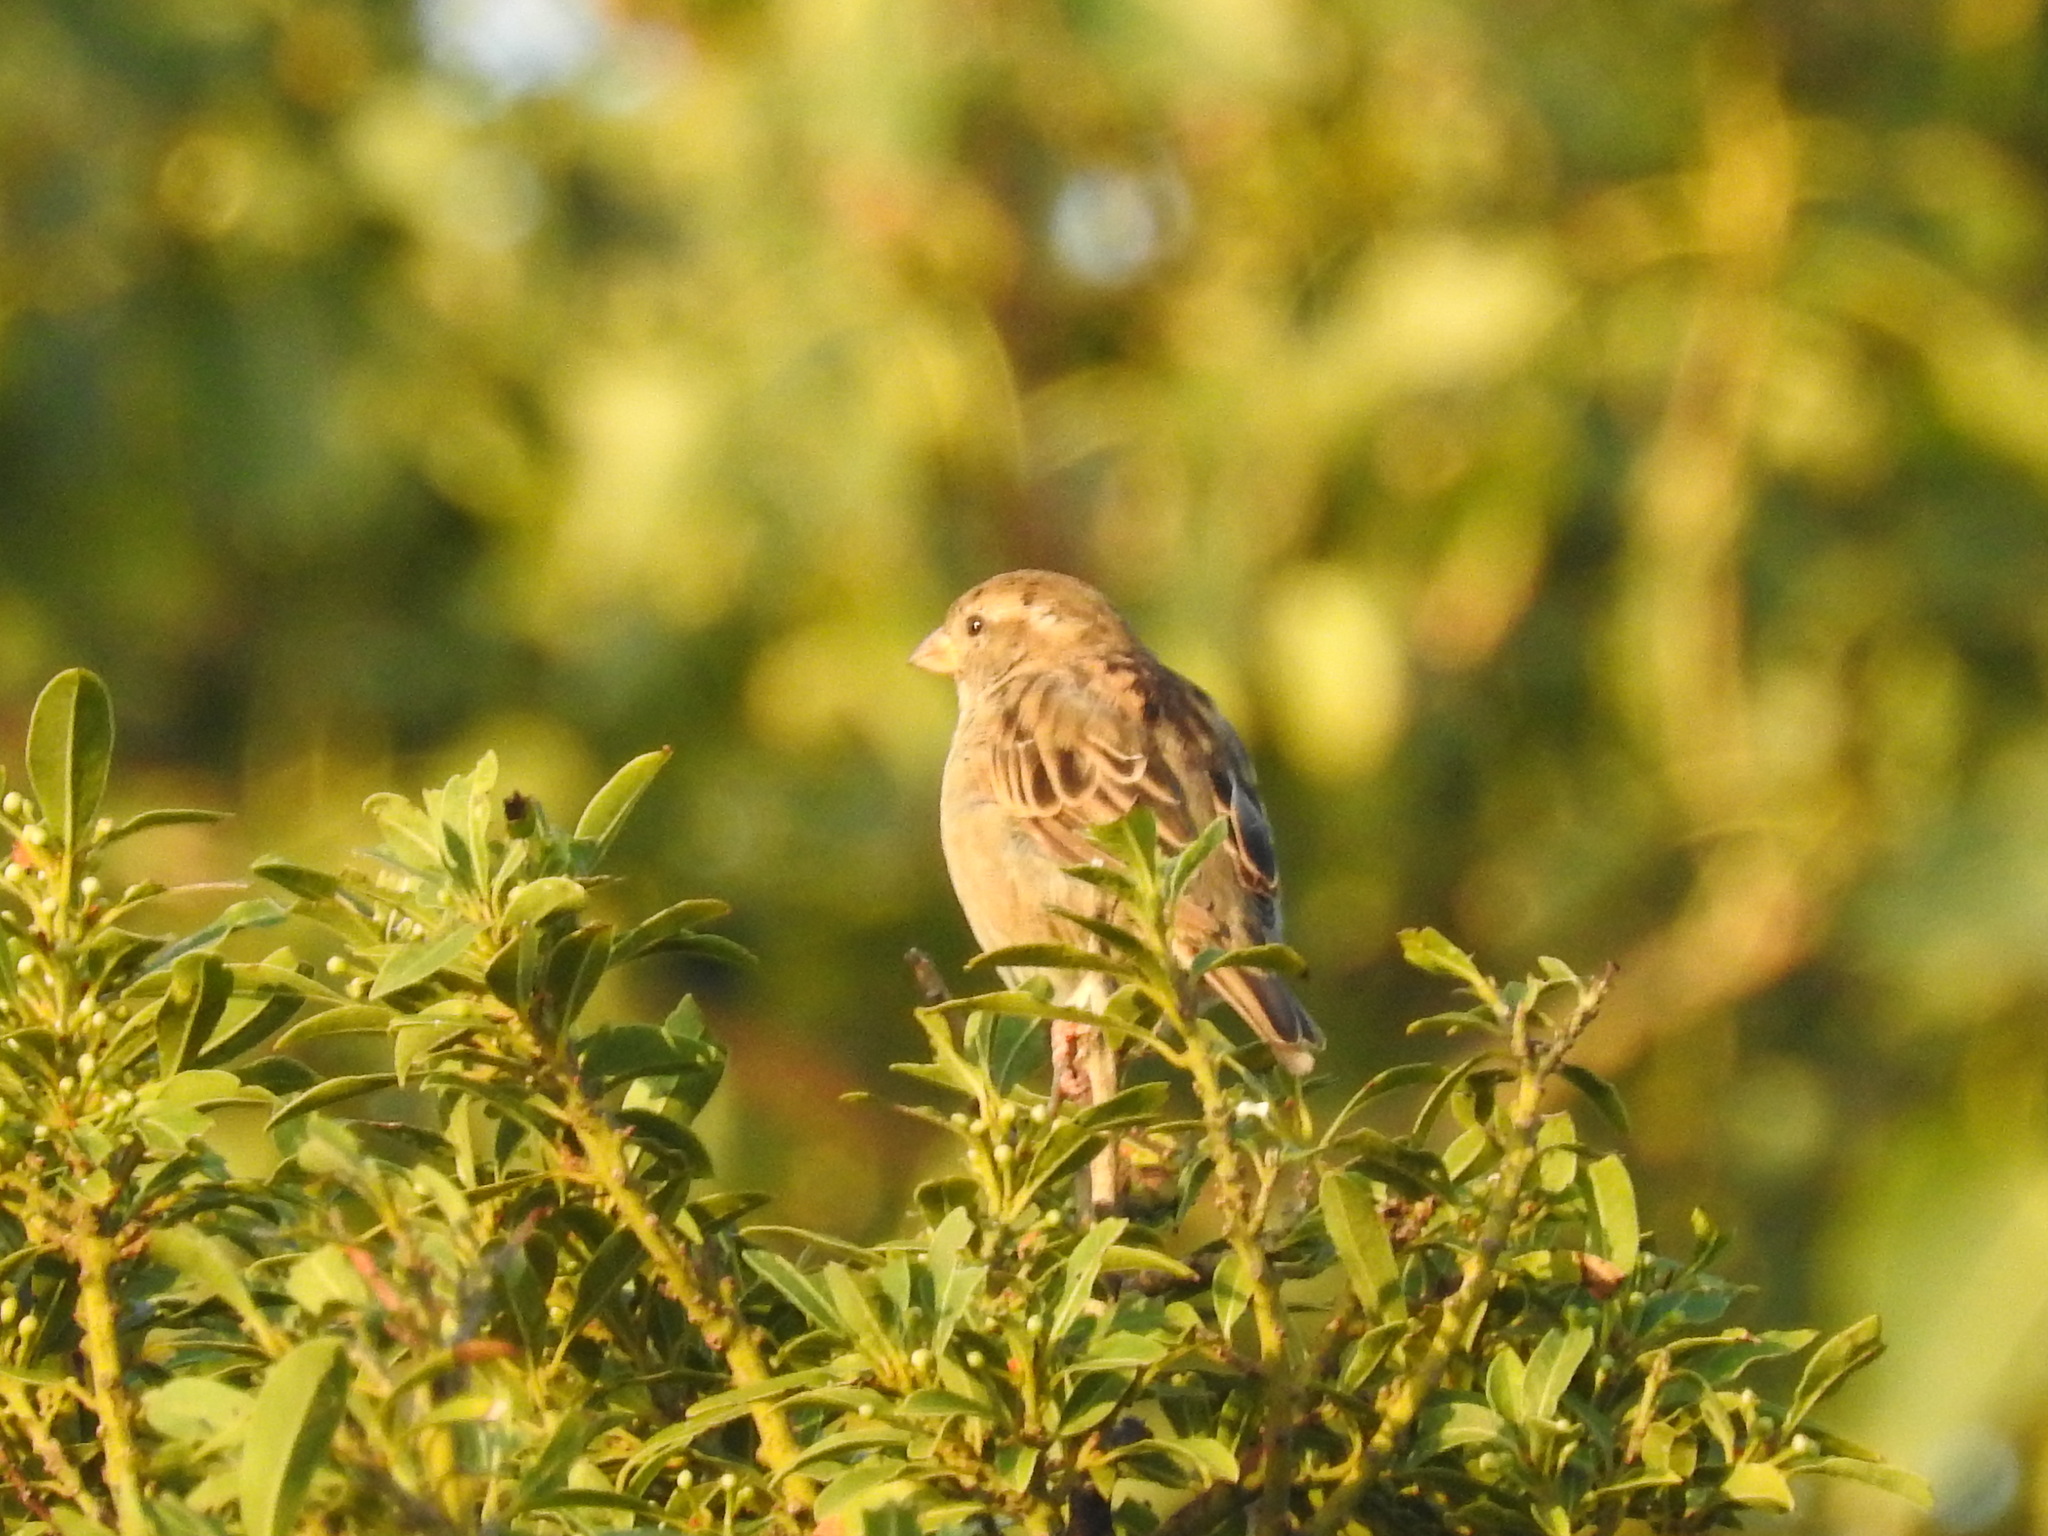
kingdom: Animalia
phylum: Chordata
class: Aves
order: Passeriformes
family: Passeridae
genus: Passer
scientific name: Passer domesticus
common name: House sparrow
